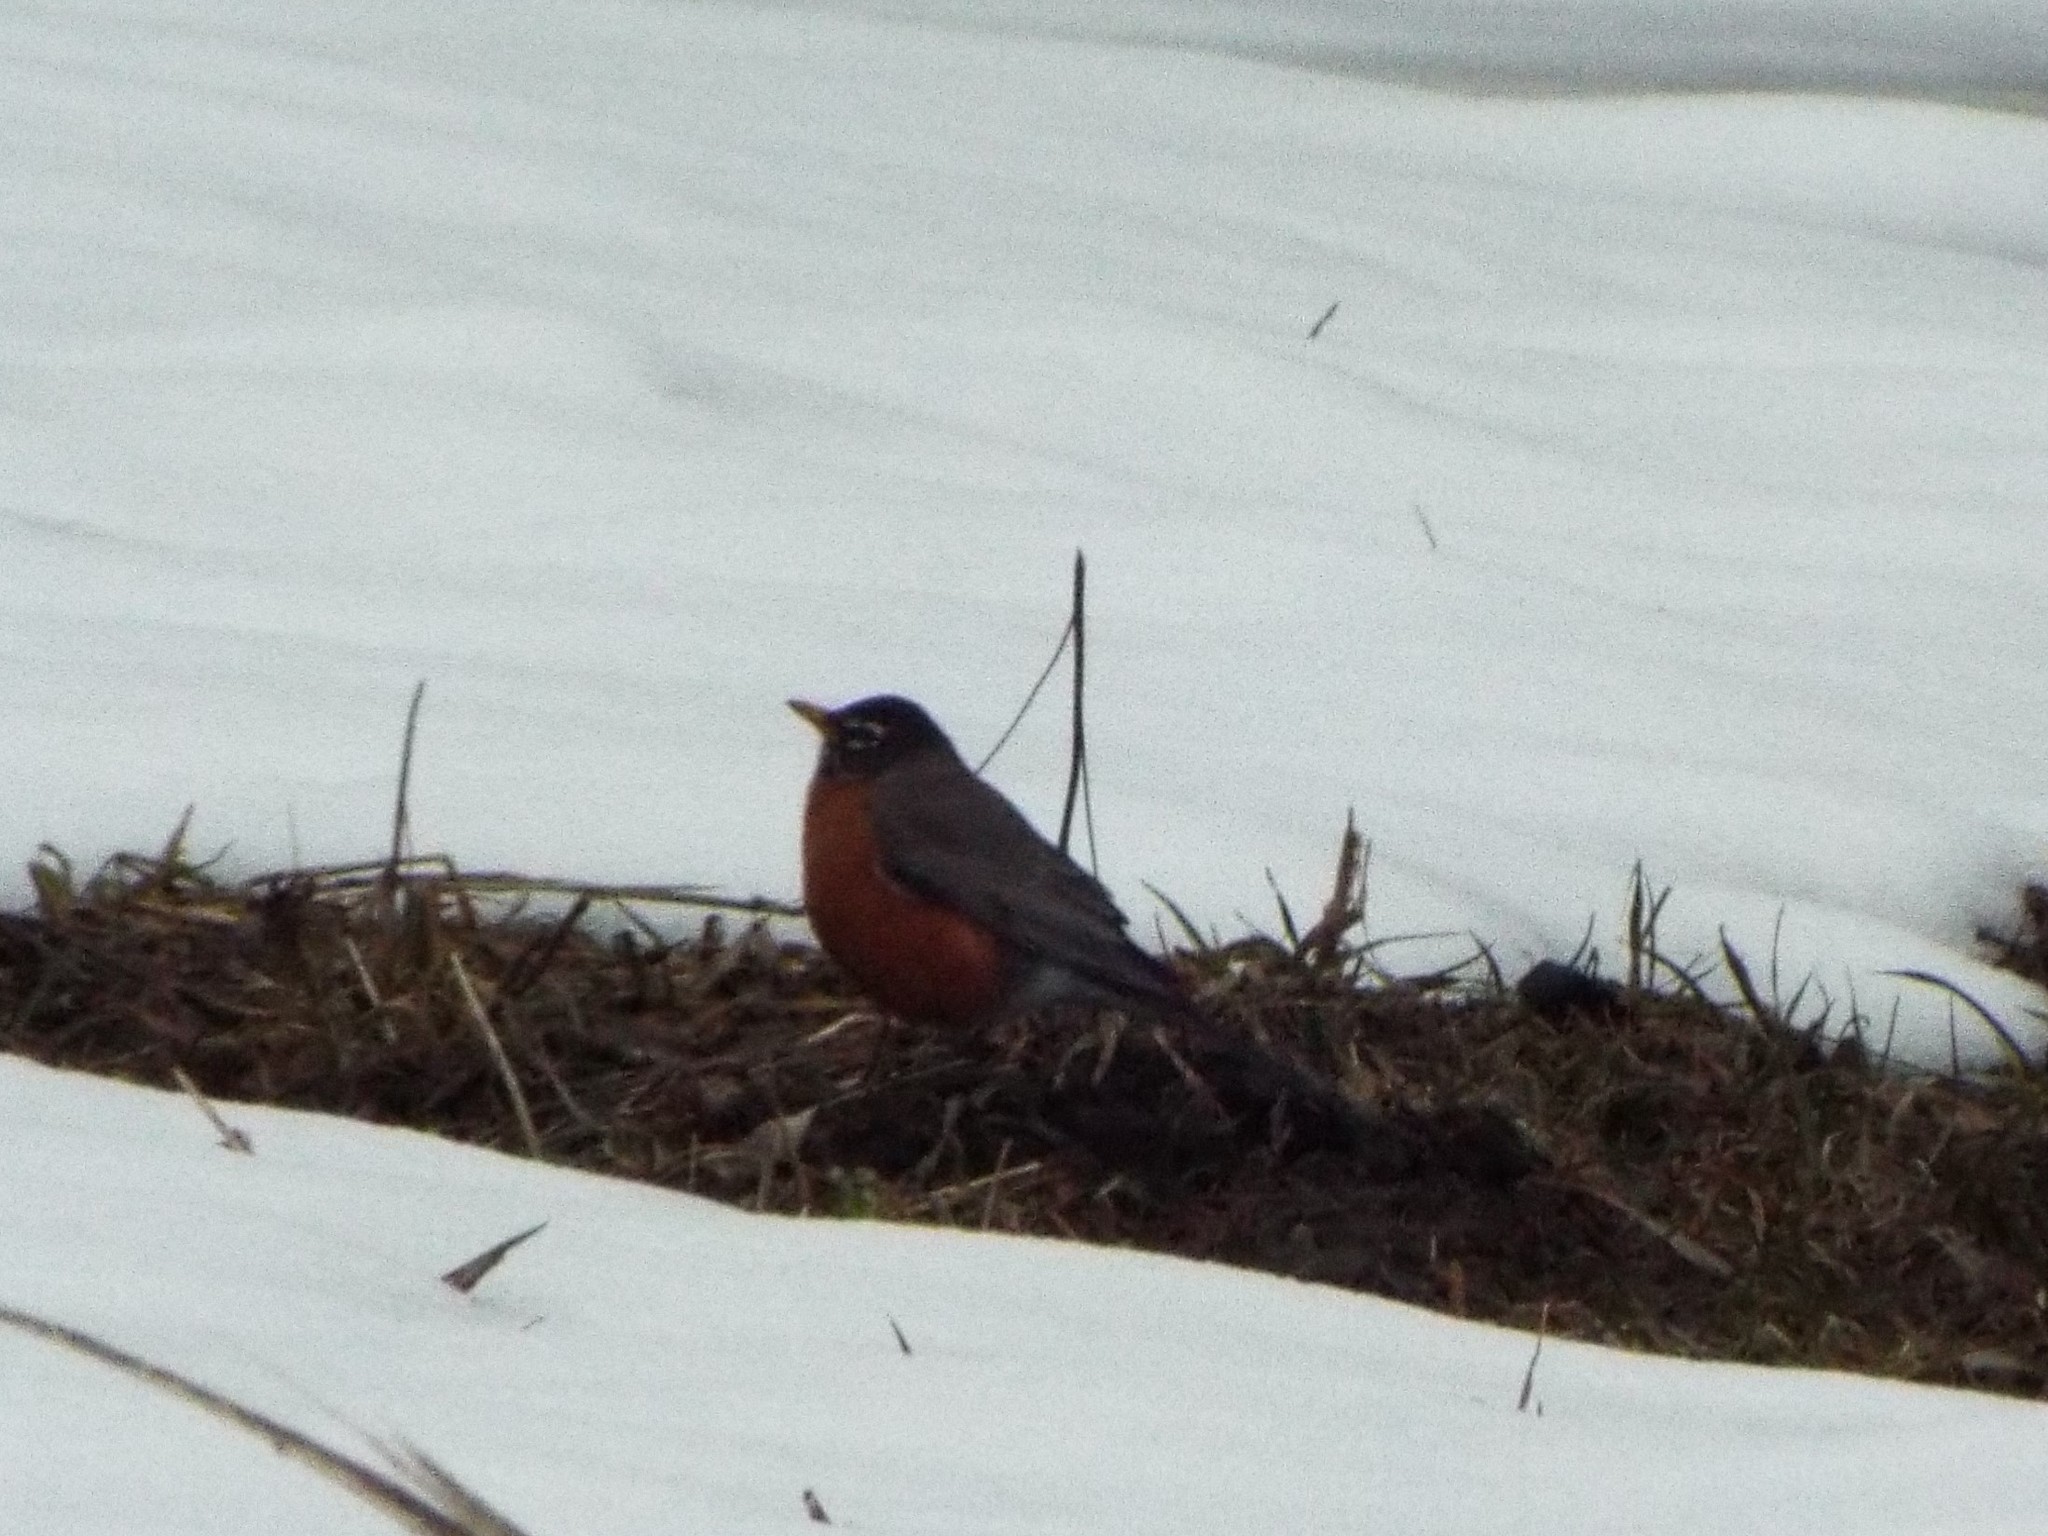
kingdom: Animalia
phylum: Chordata
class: Aves
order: Passeriformes
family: Turdidae
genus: Turdus
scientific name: Turdus migratorius
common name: American robin
